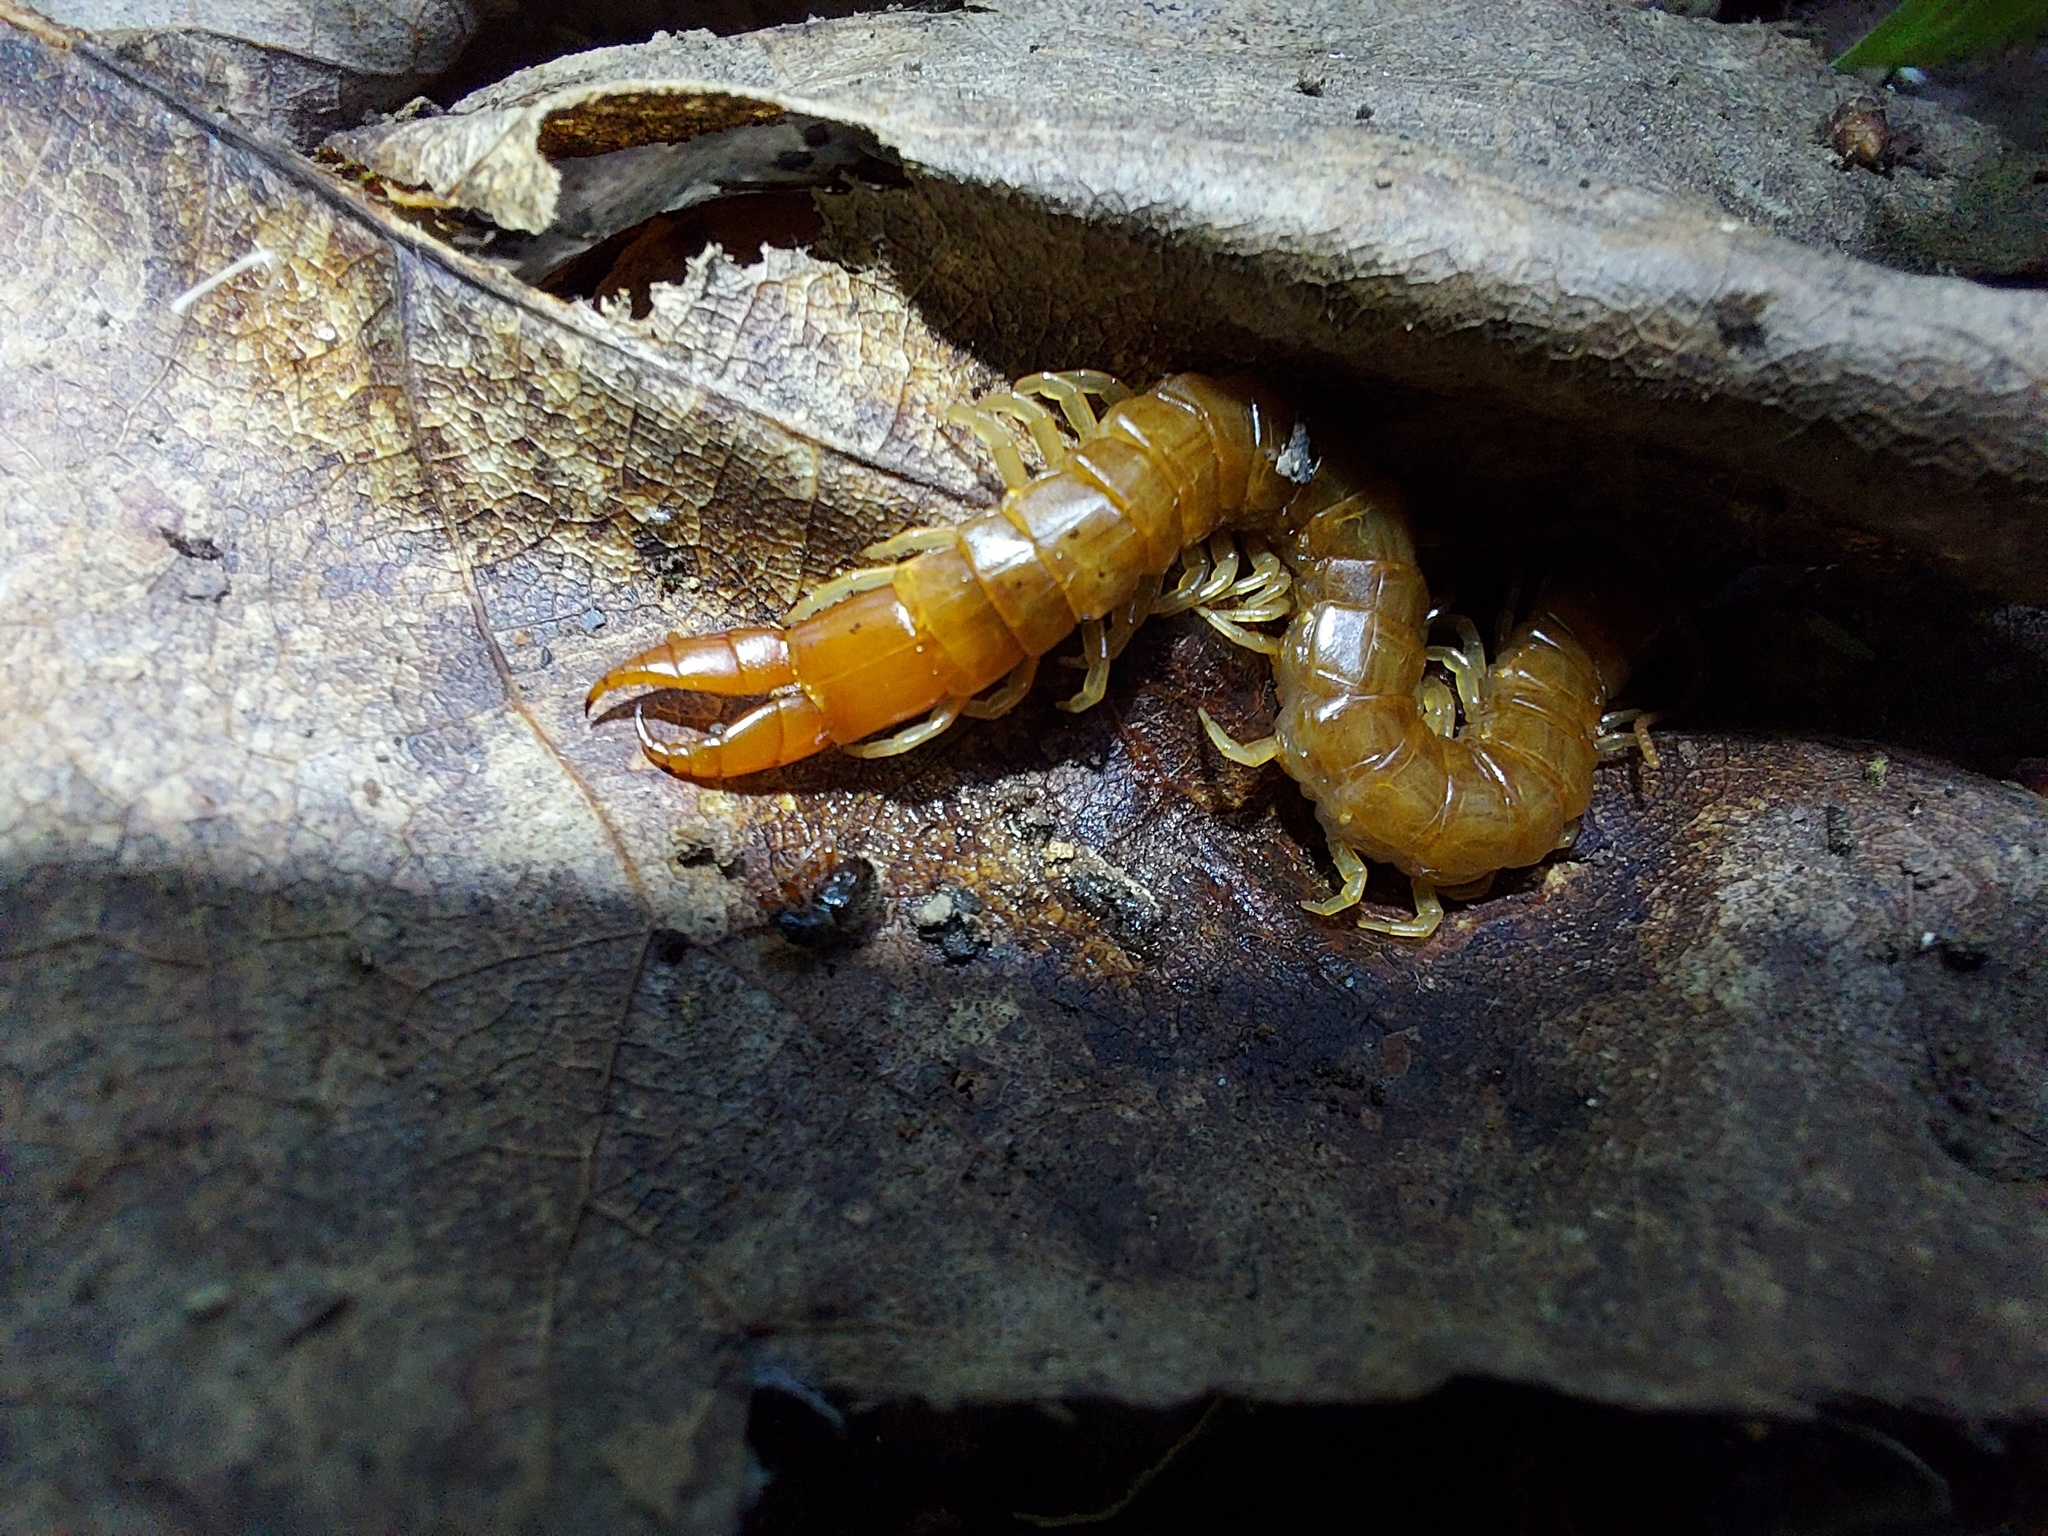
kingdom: Animalia
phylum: Arthropoda
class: Chilopoda
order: Scolopendromorpha
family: Cryptopidae
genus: Theatops
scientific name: Theatops posticus
